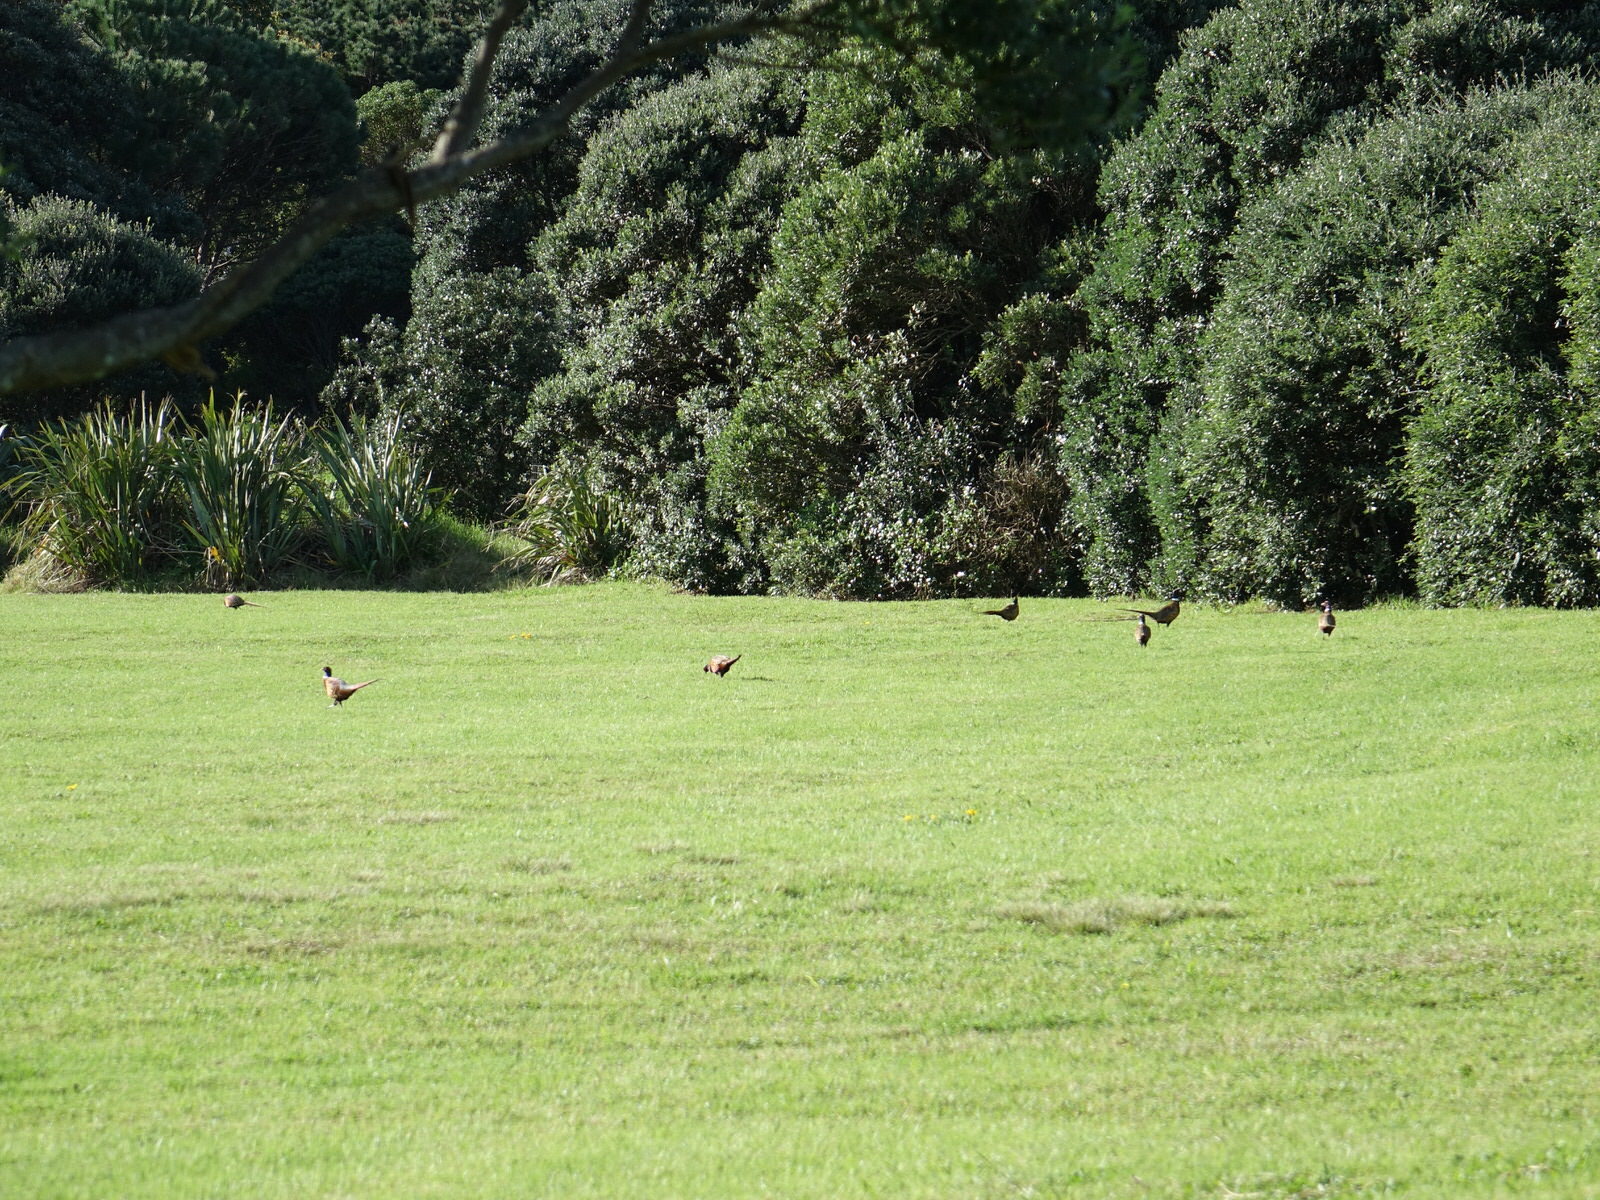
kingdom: Animalia
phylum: Chordata
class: Aves
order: Galliformes
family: Phasianidae
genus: Phasianus
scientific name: Phasianus colchicus
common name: Common pheasant
